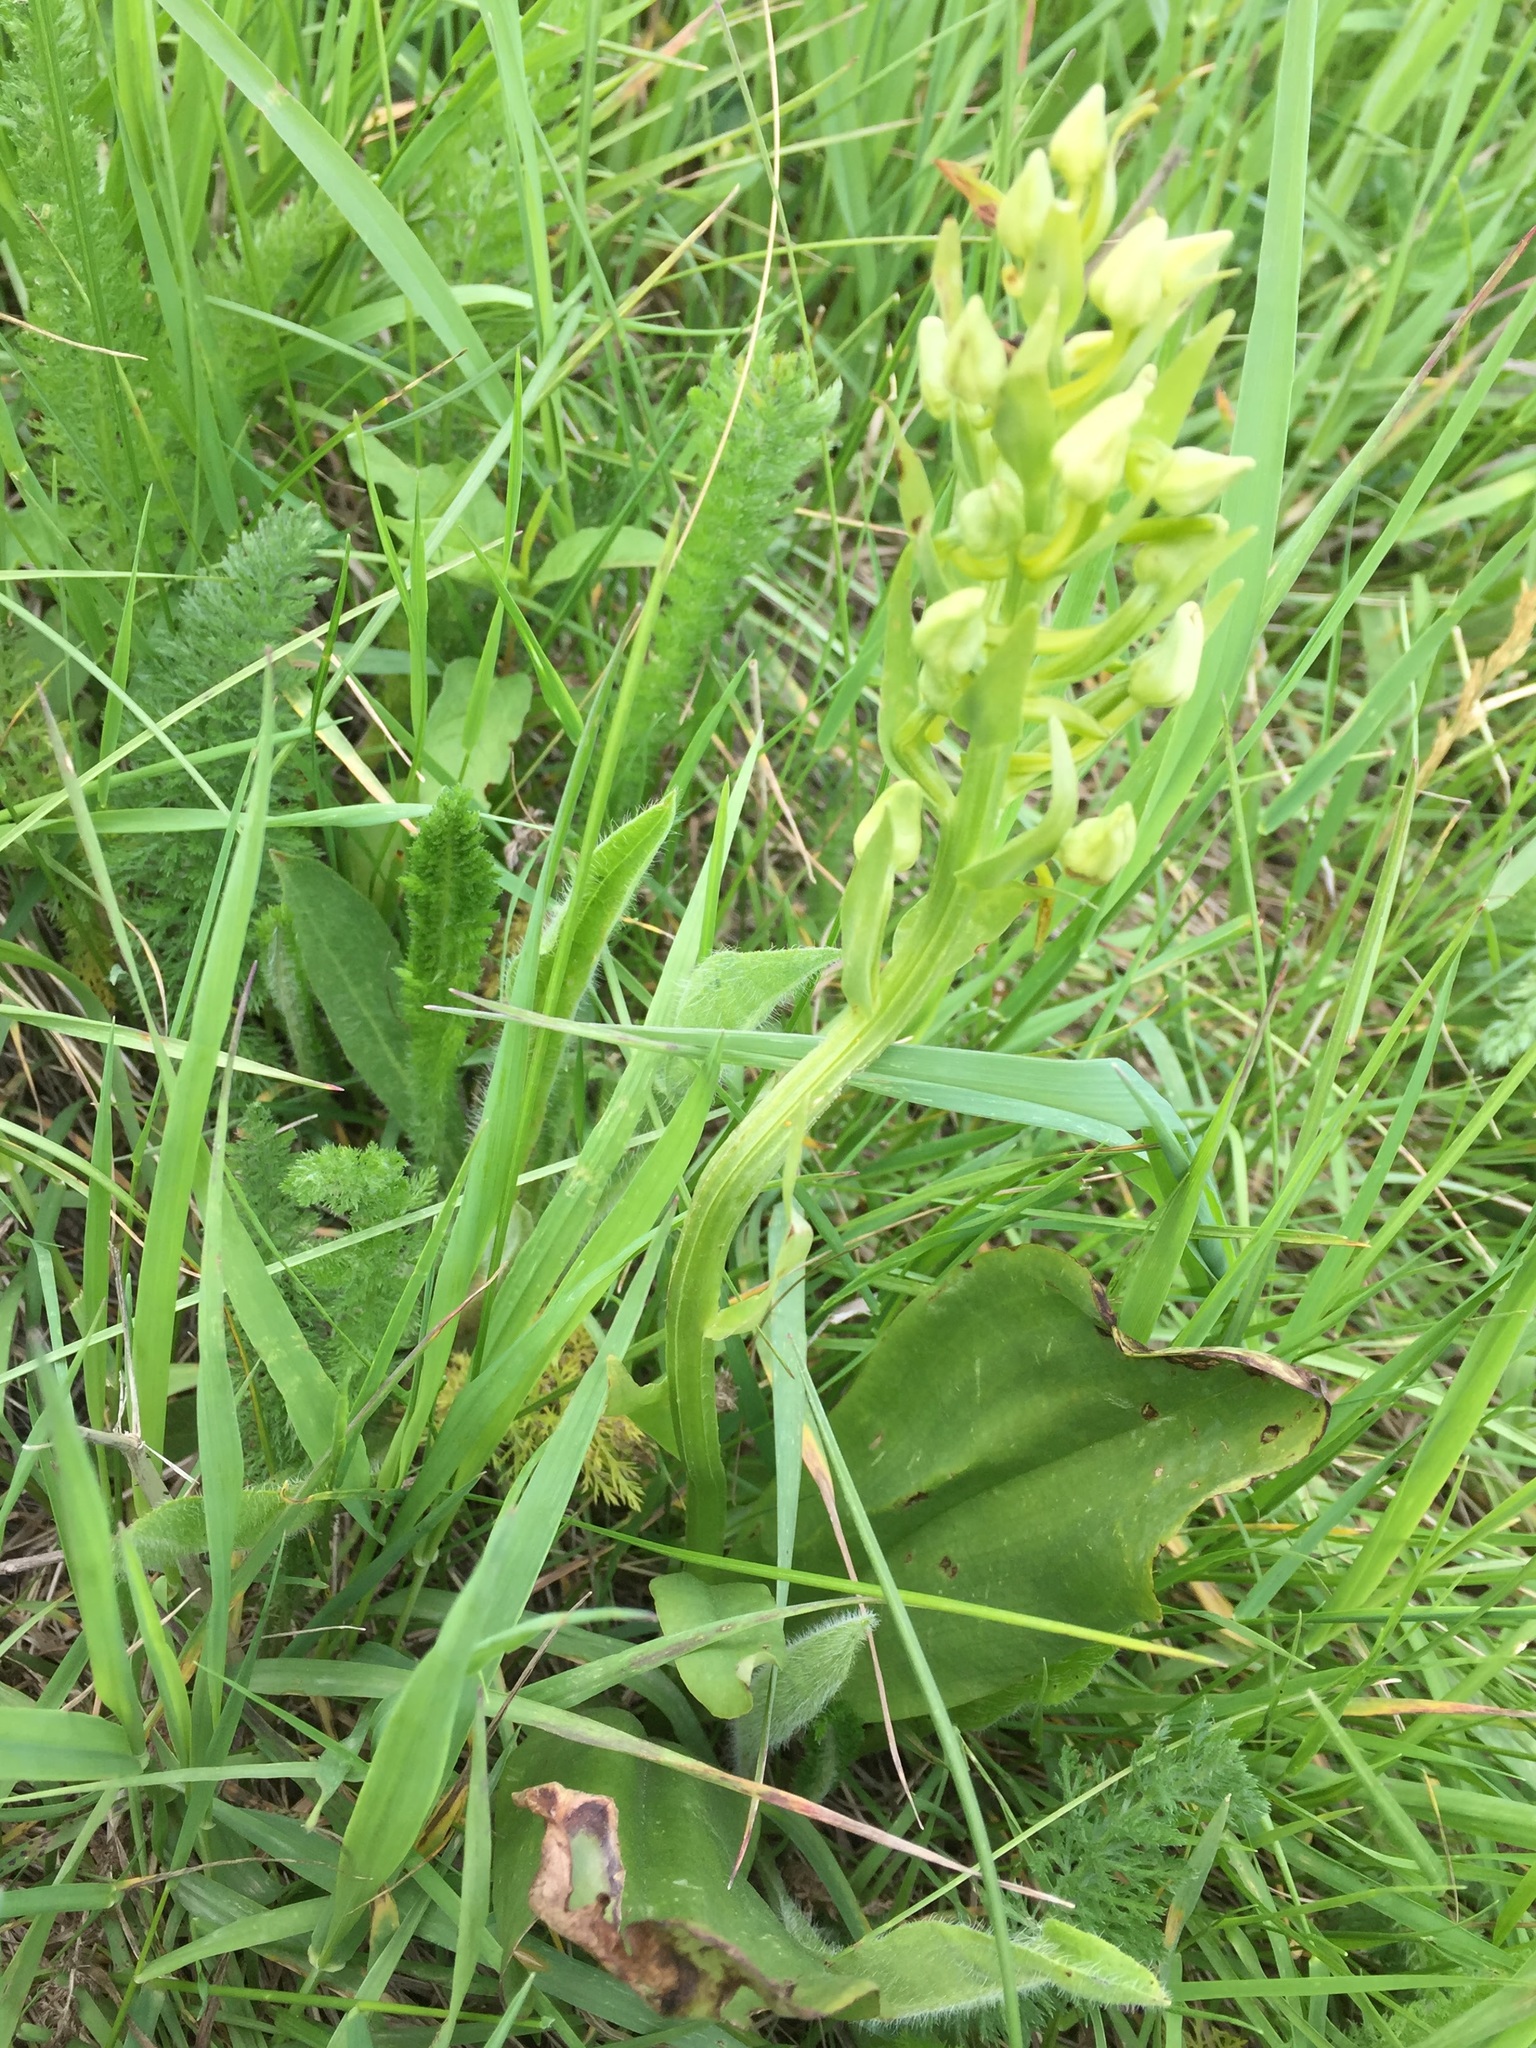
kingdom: Plantae
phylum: Tracheophyta
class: Liliopsida
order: Asparagales
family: Orchidaceae
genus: Platanthera
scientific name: Platanthera chlorantha
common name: Greater butterfly-orchid
